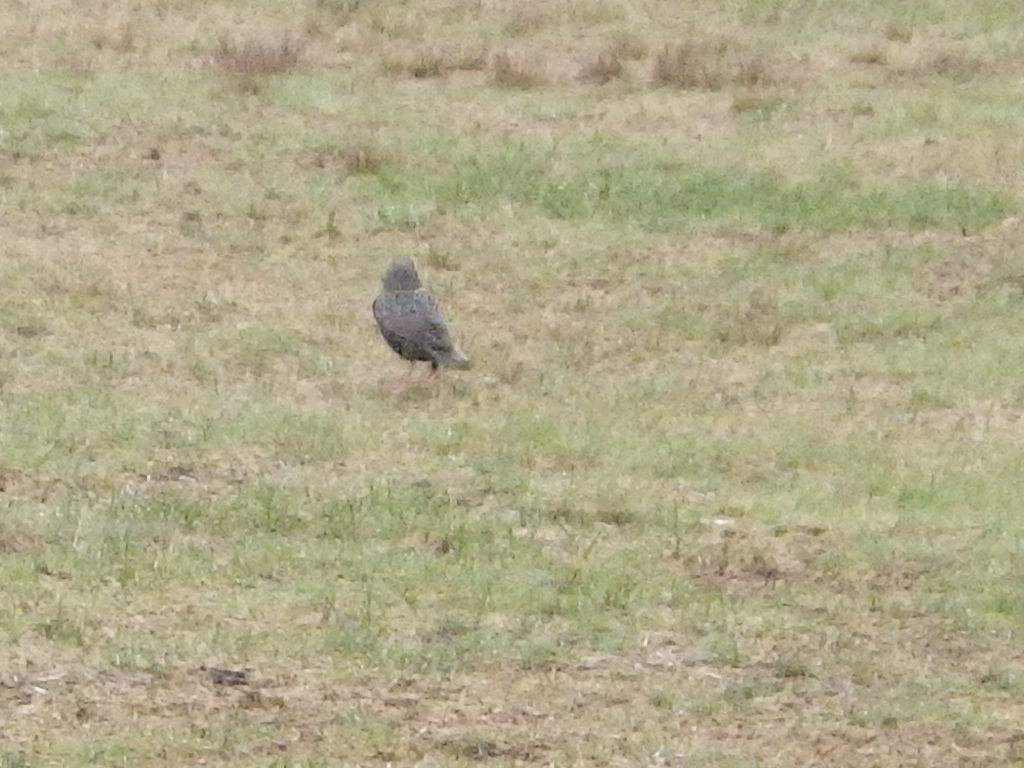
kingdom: Animalia
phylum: Chordata
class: Aves
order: Passeriformes
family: Sturnidae
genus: Sturnus
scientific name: Sturnus vulgaris
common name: Common starling
